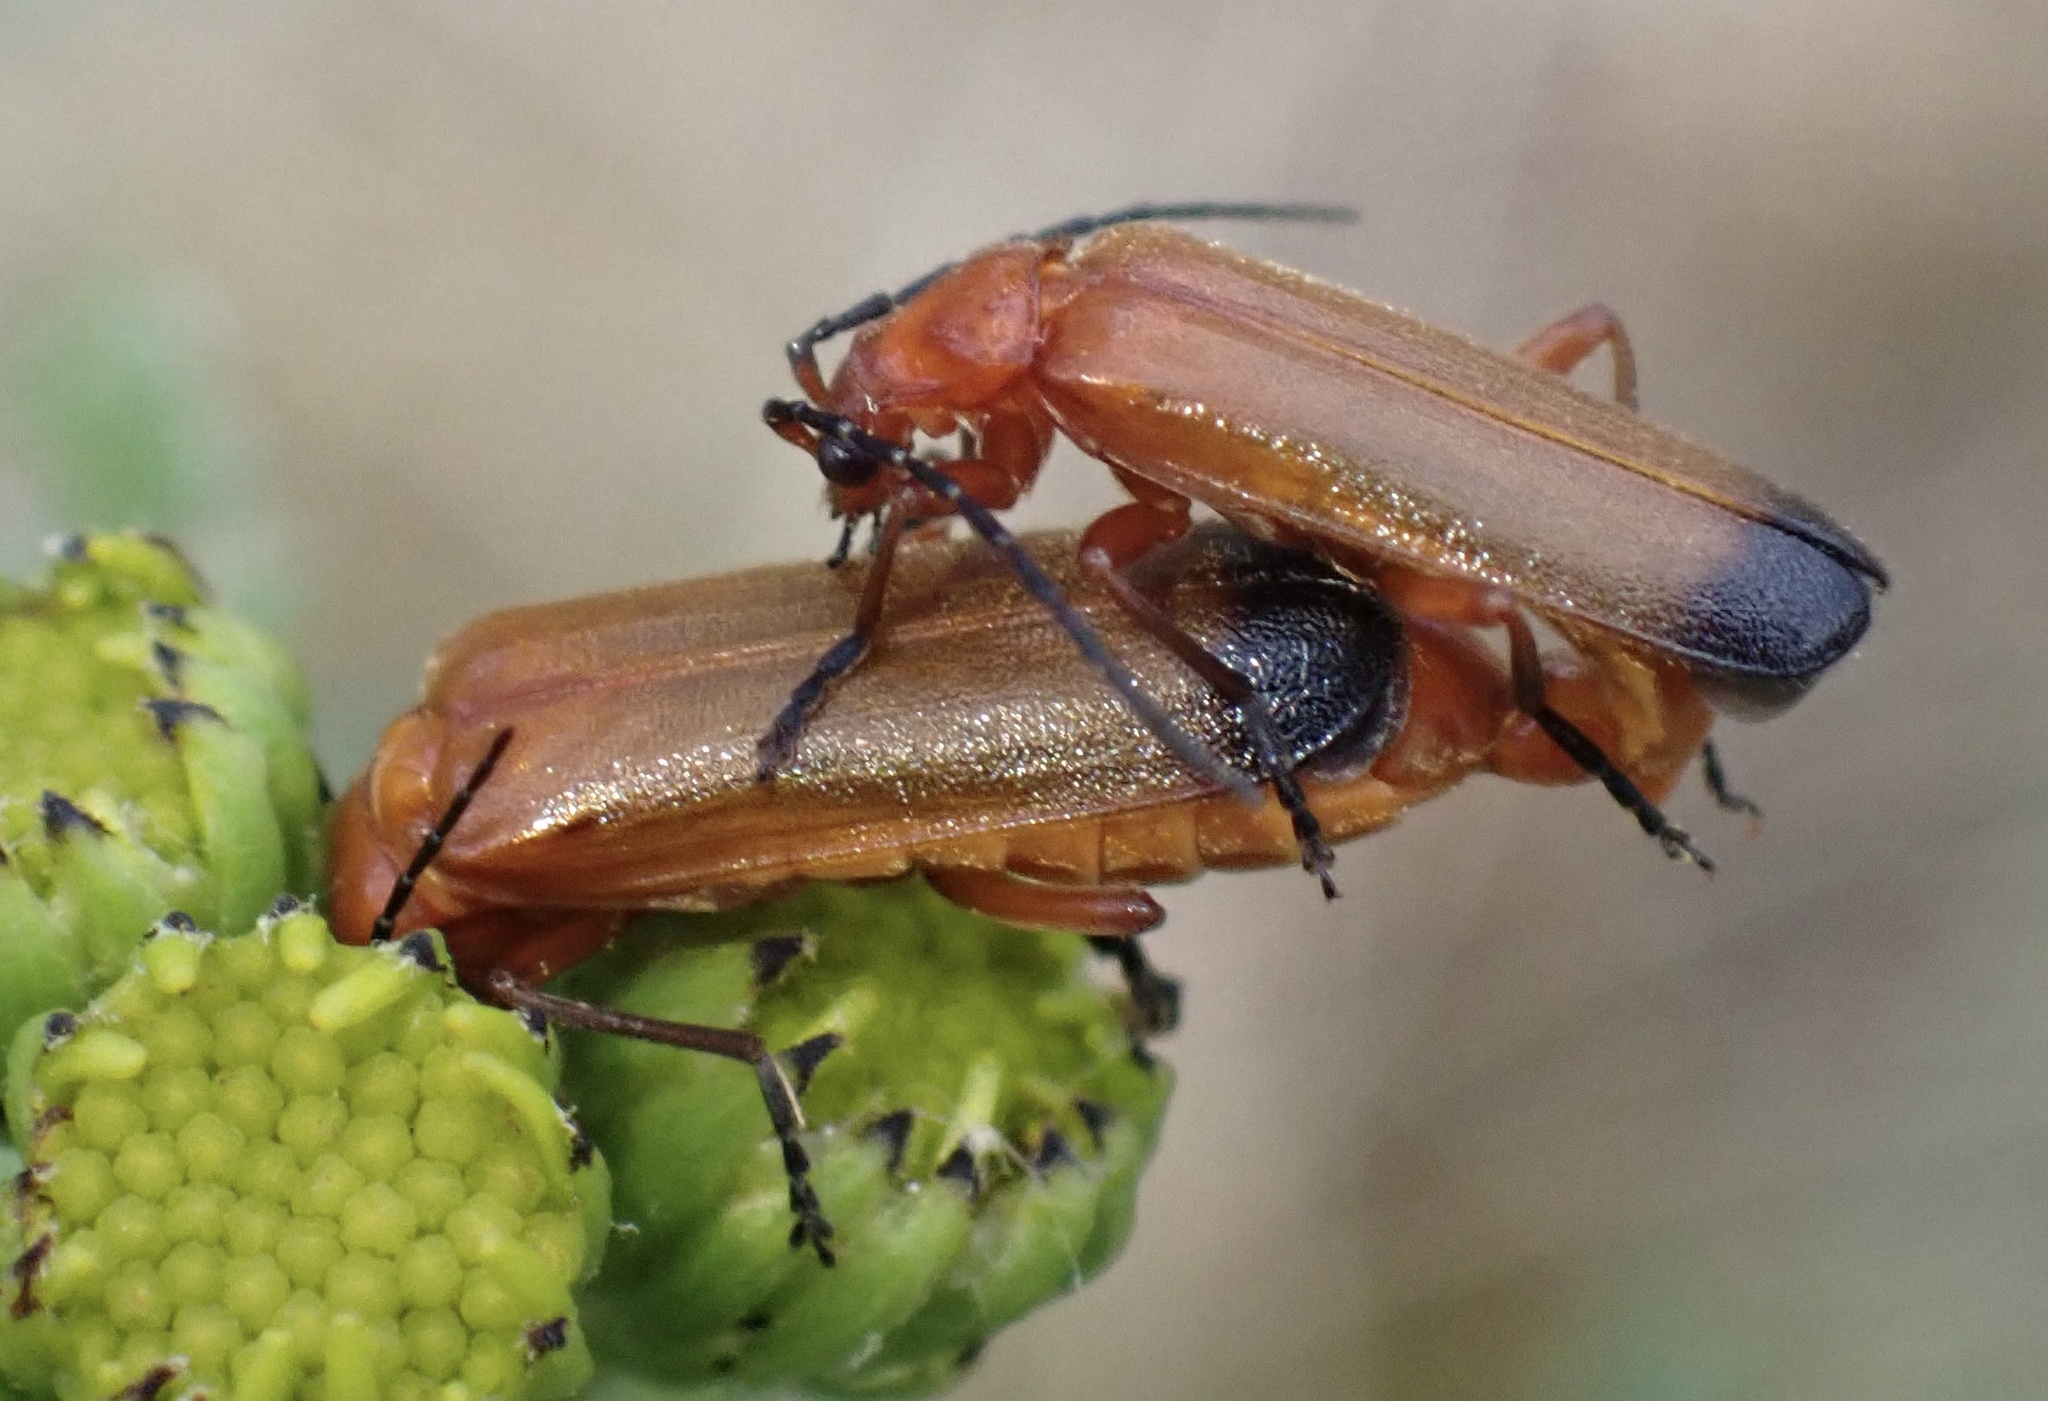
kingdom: Animalia
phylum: Arthropoda
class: Insecta
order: Coleoptera
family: Cantharidae
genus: Rhagonycha
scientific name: Rhagonycha fulva
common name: Common red soldier beetle
